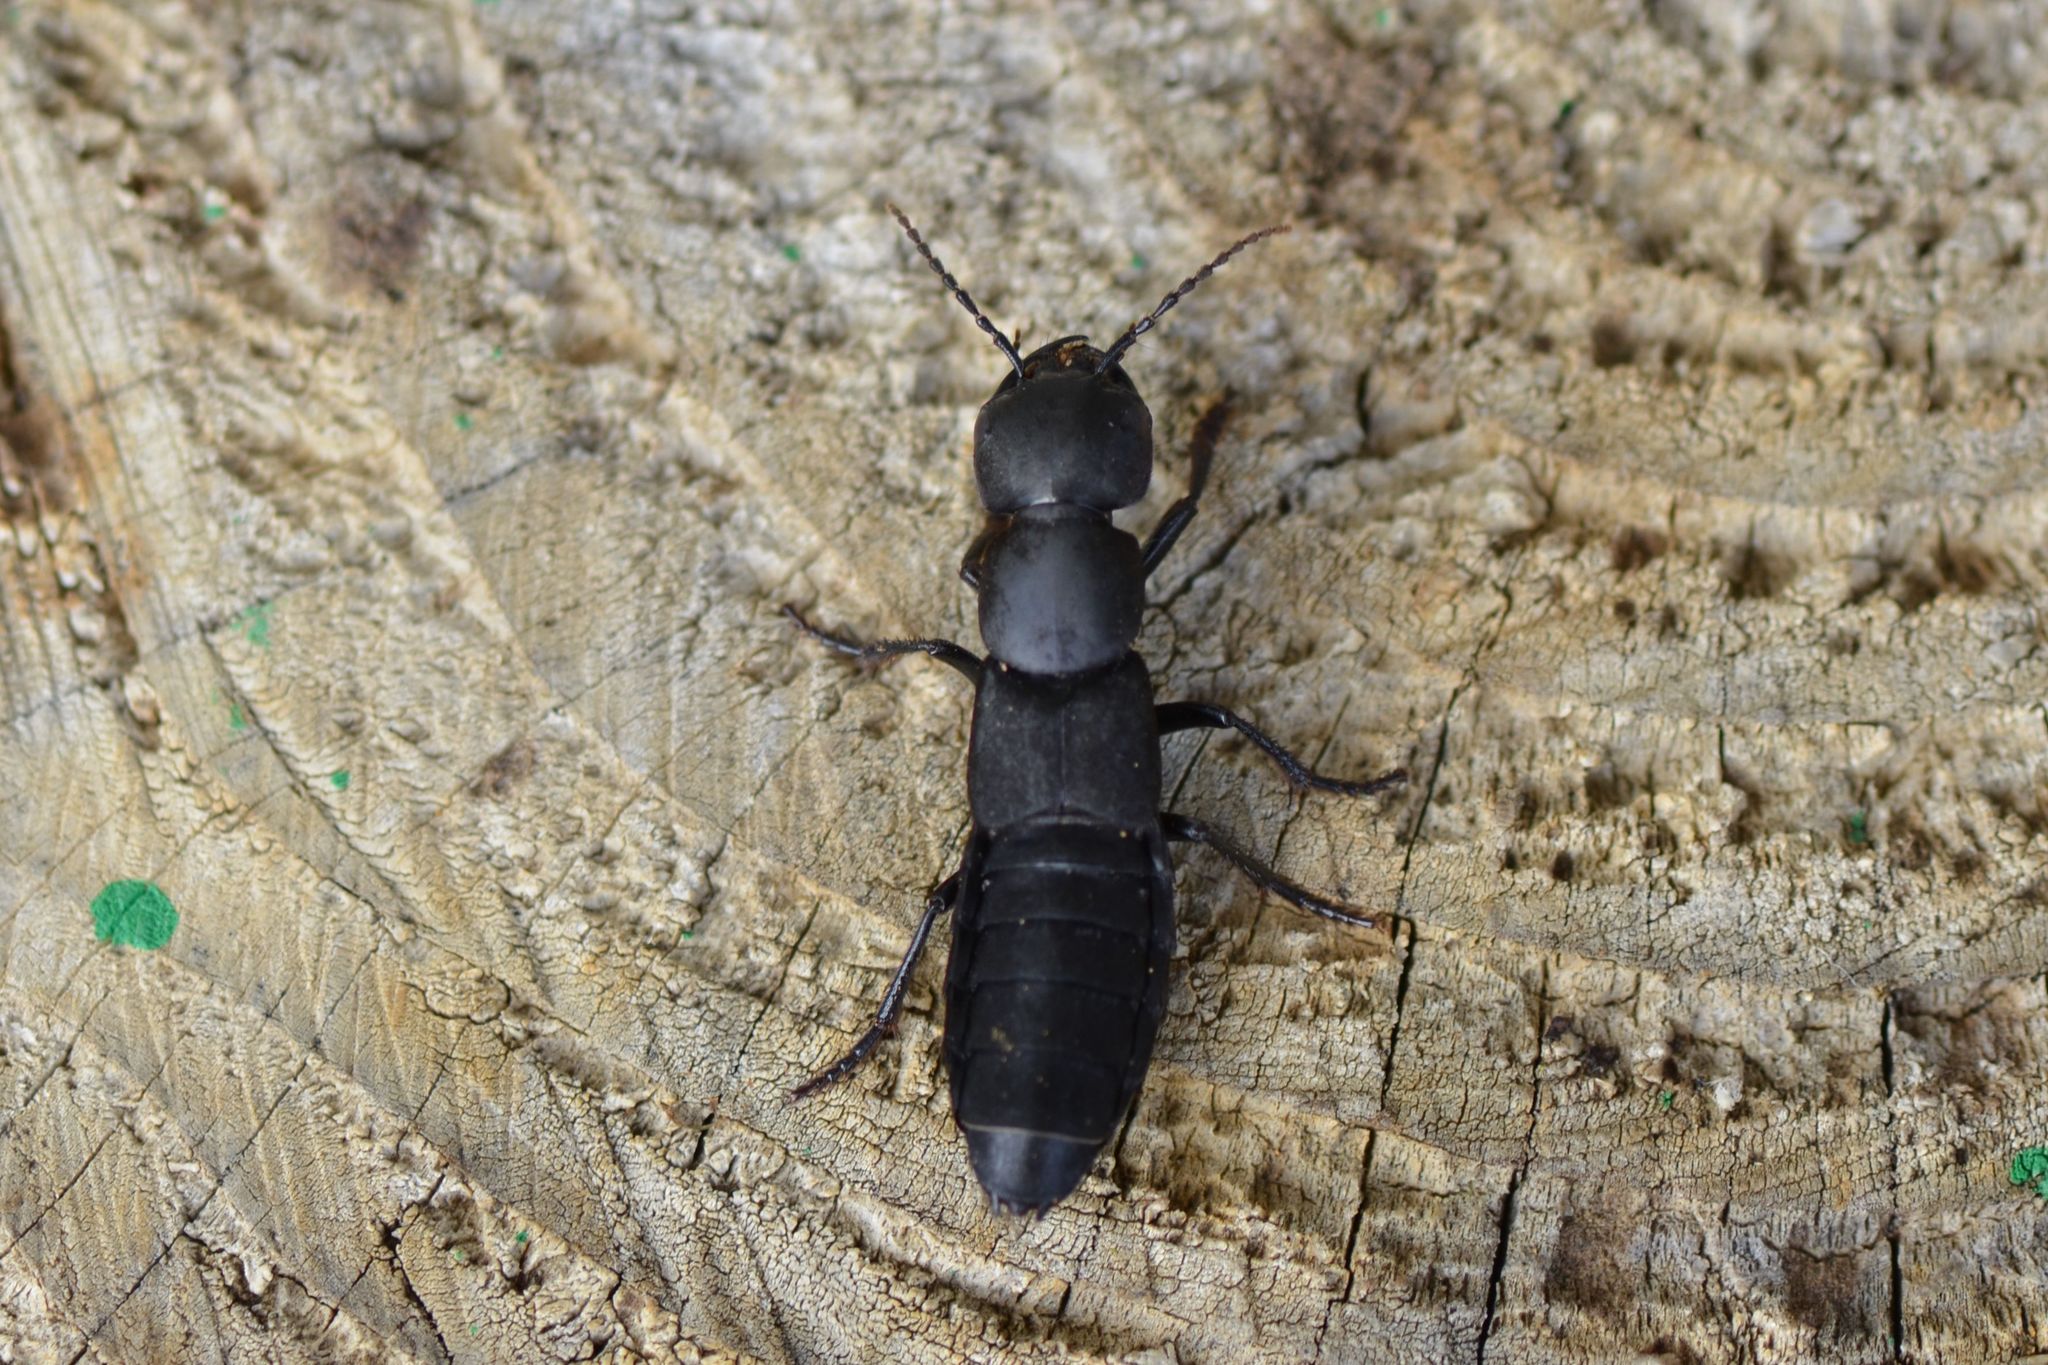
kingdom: Animalia
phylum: Arthropoda
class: Insecta
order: Coleoptera
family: Staphylinidae
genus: Ocypus
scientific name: Ocypus olens
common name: Devil's coach-horse
